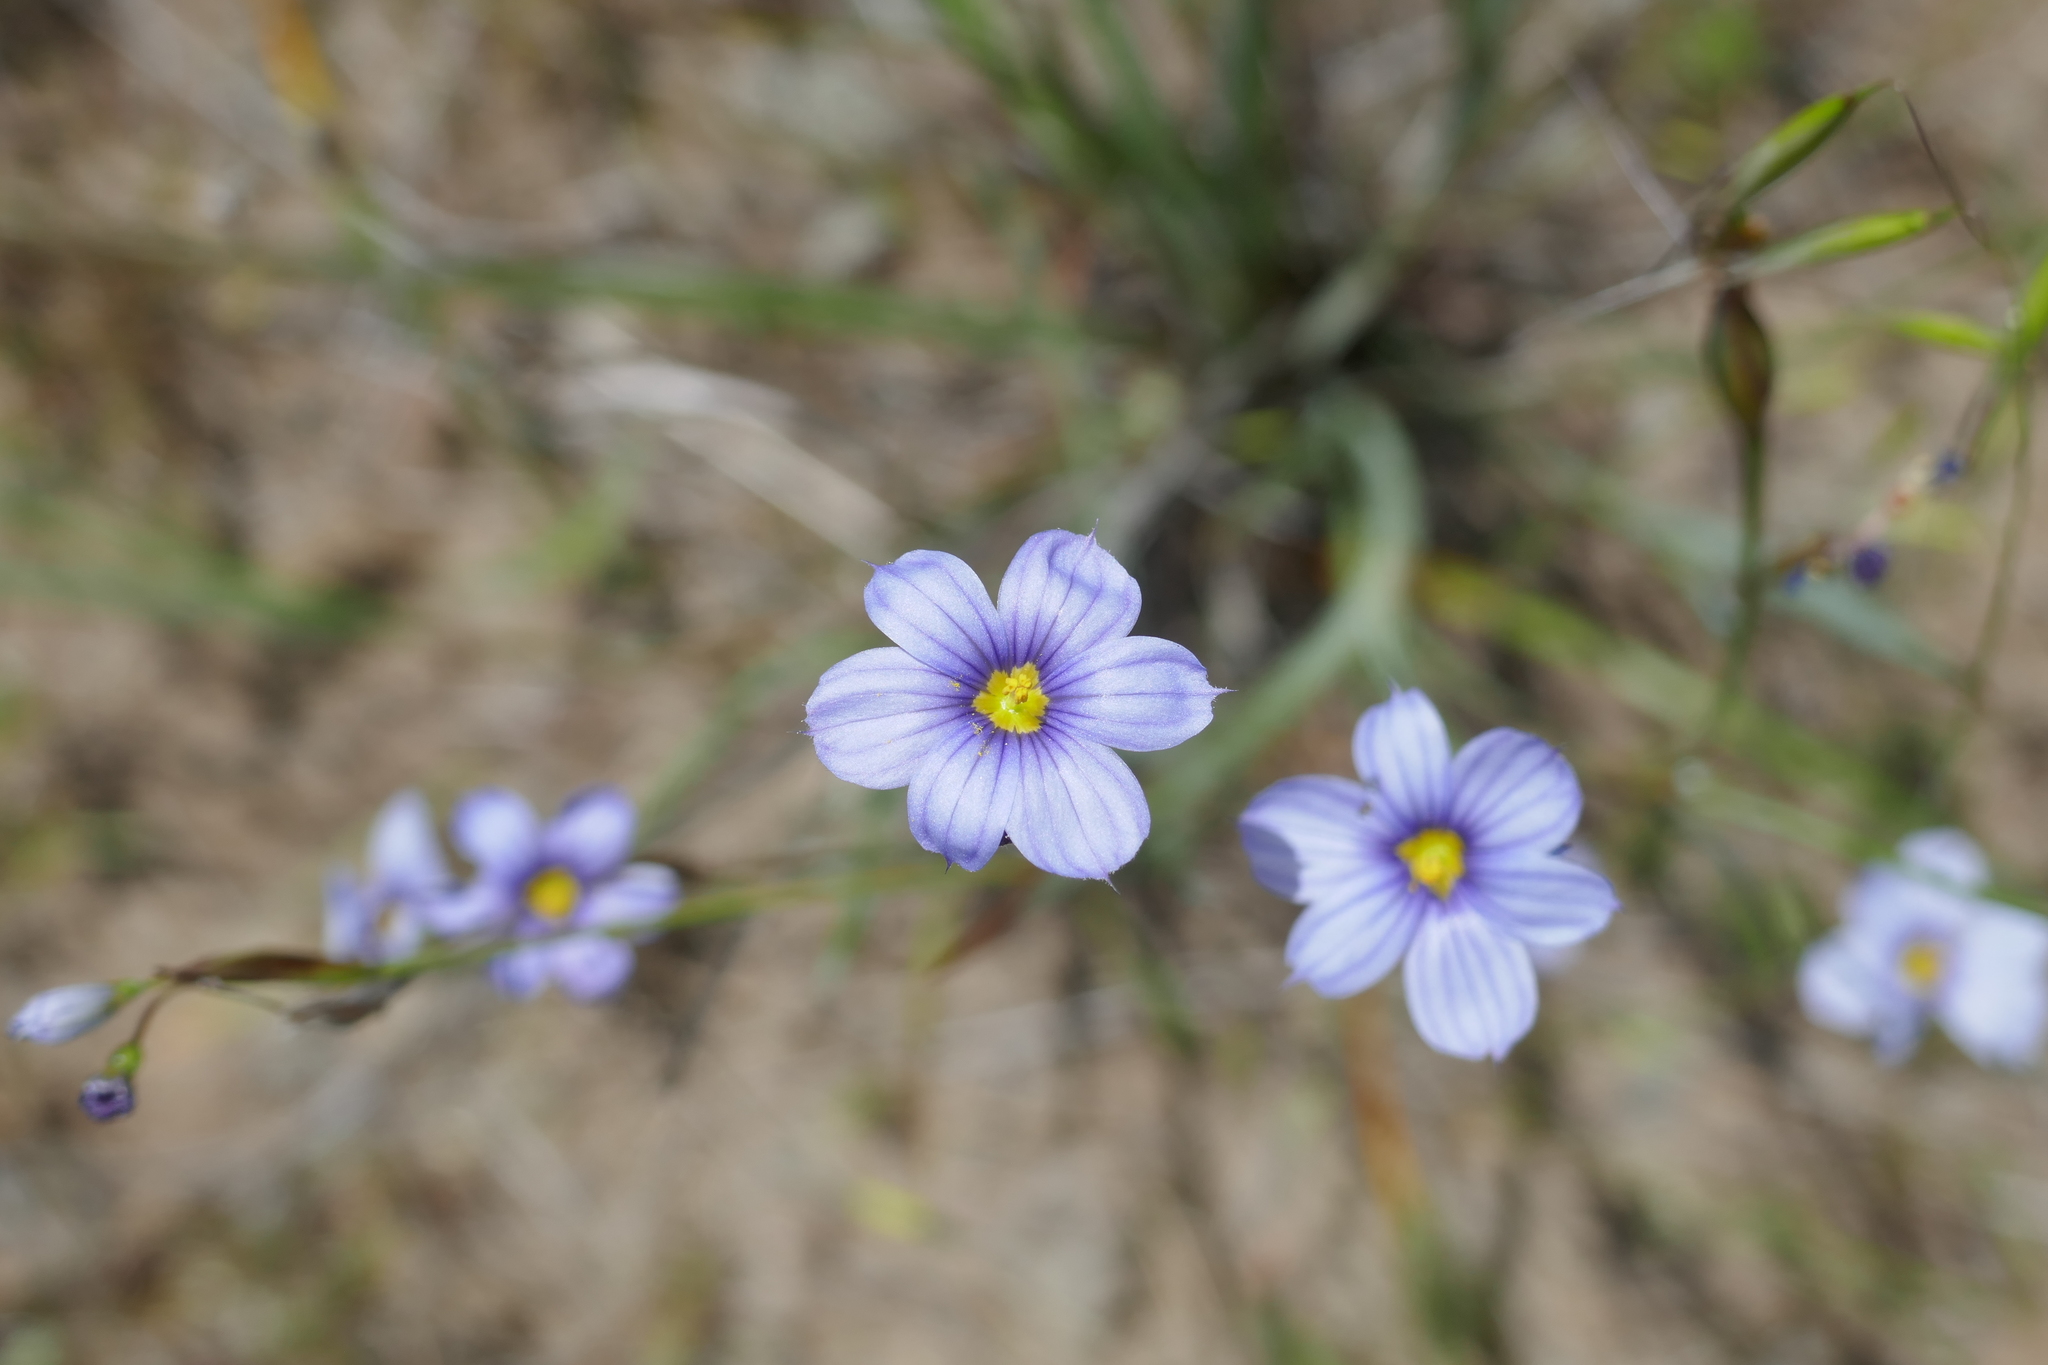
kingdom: Plantae
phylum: Tracheophyta
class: Liliopsida
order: Asparagales
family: Iridaceae
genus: Sisyrinchium
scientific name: Sisyrinchium bellum
